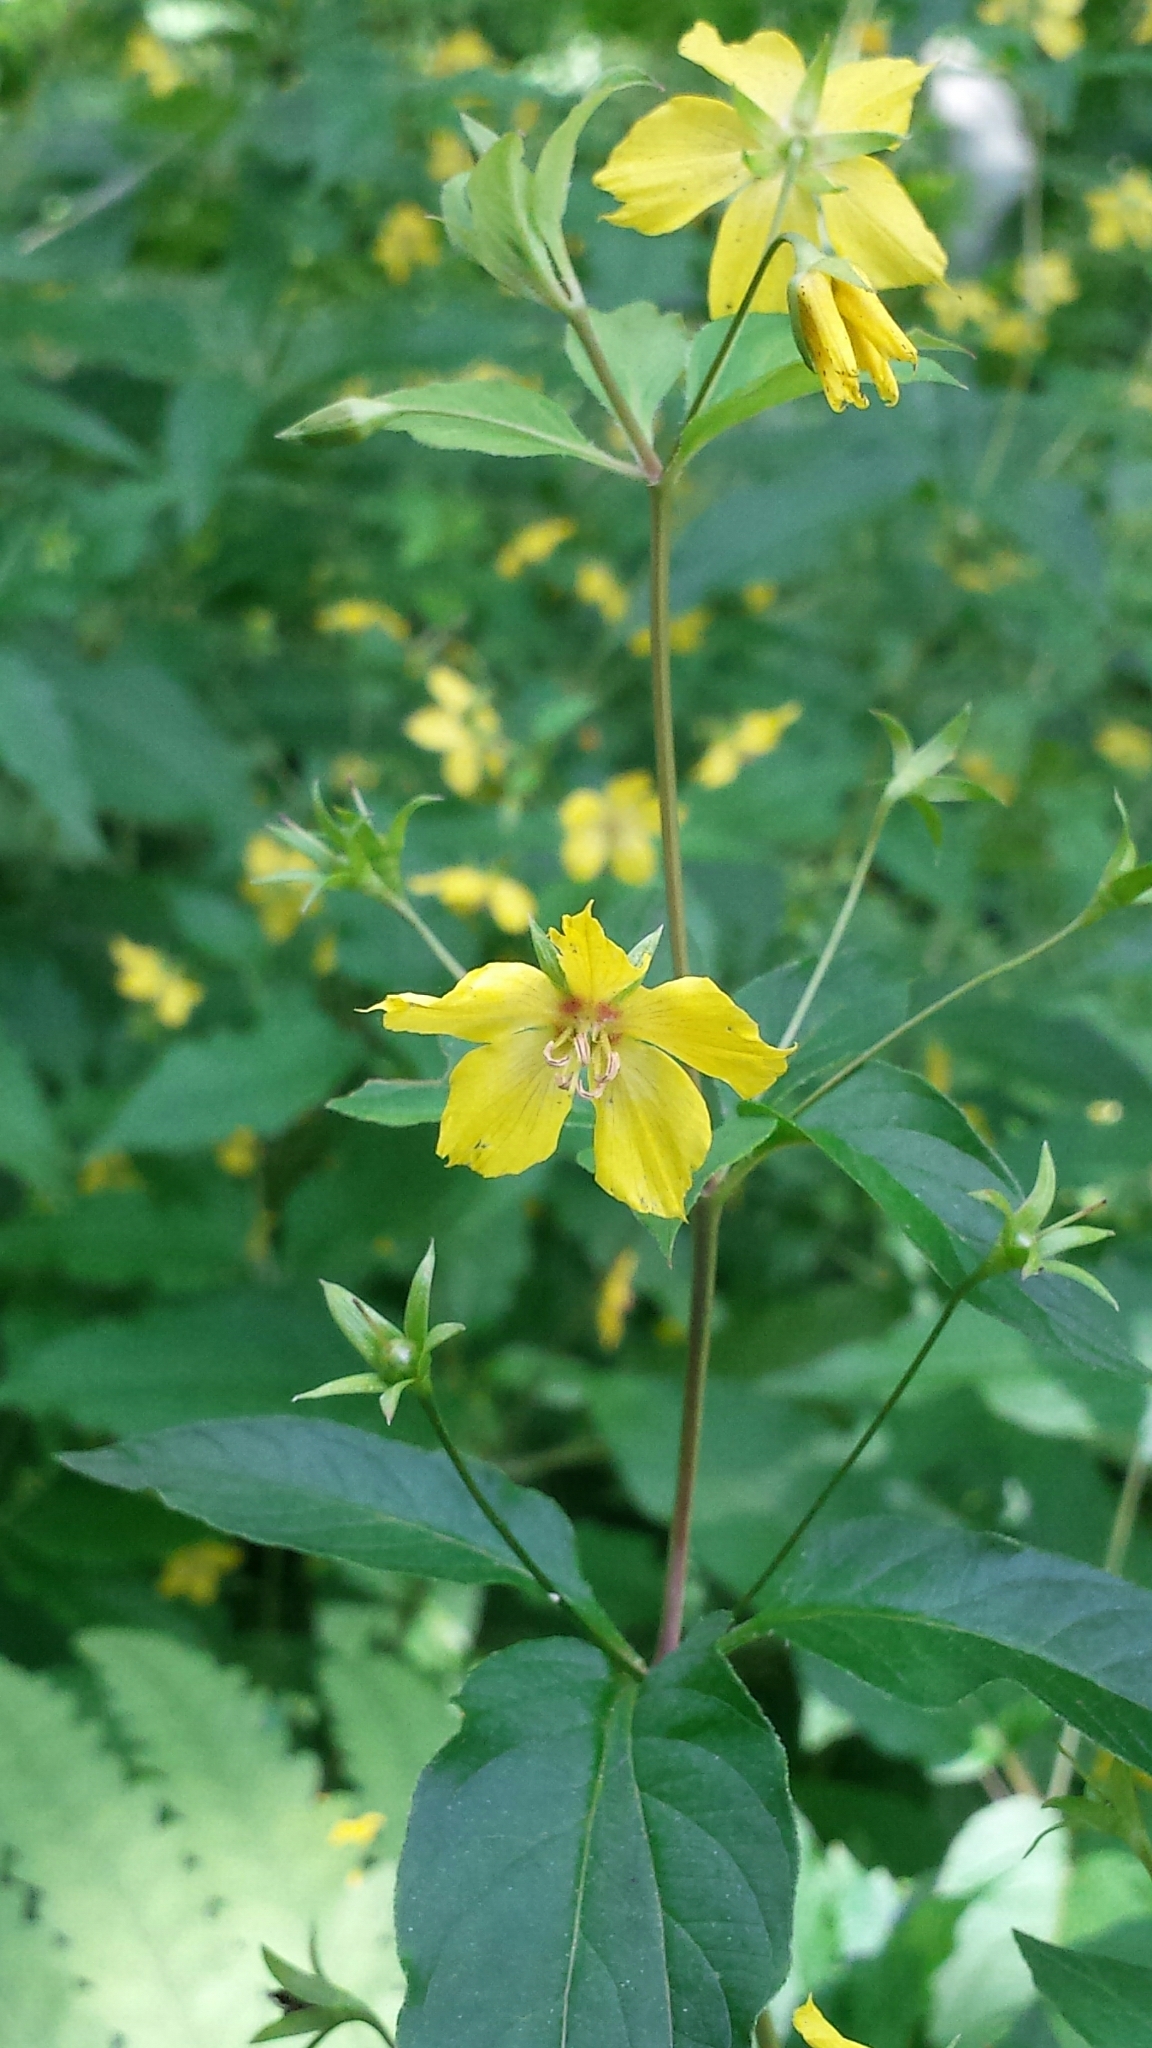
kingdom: Plantae
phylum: Tracheophyta
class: Magnoliopsida
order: Ericales
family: Primulaceae
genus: Lysimachia
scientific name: Lysimachia ciliata
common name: Fringed loosestrife
